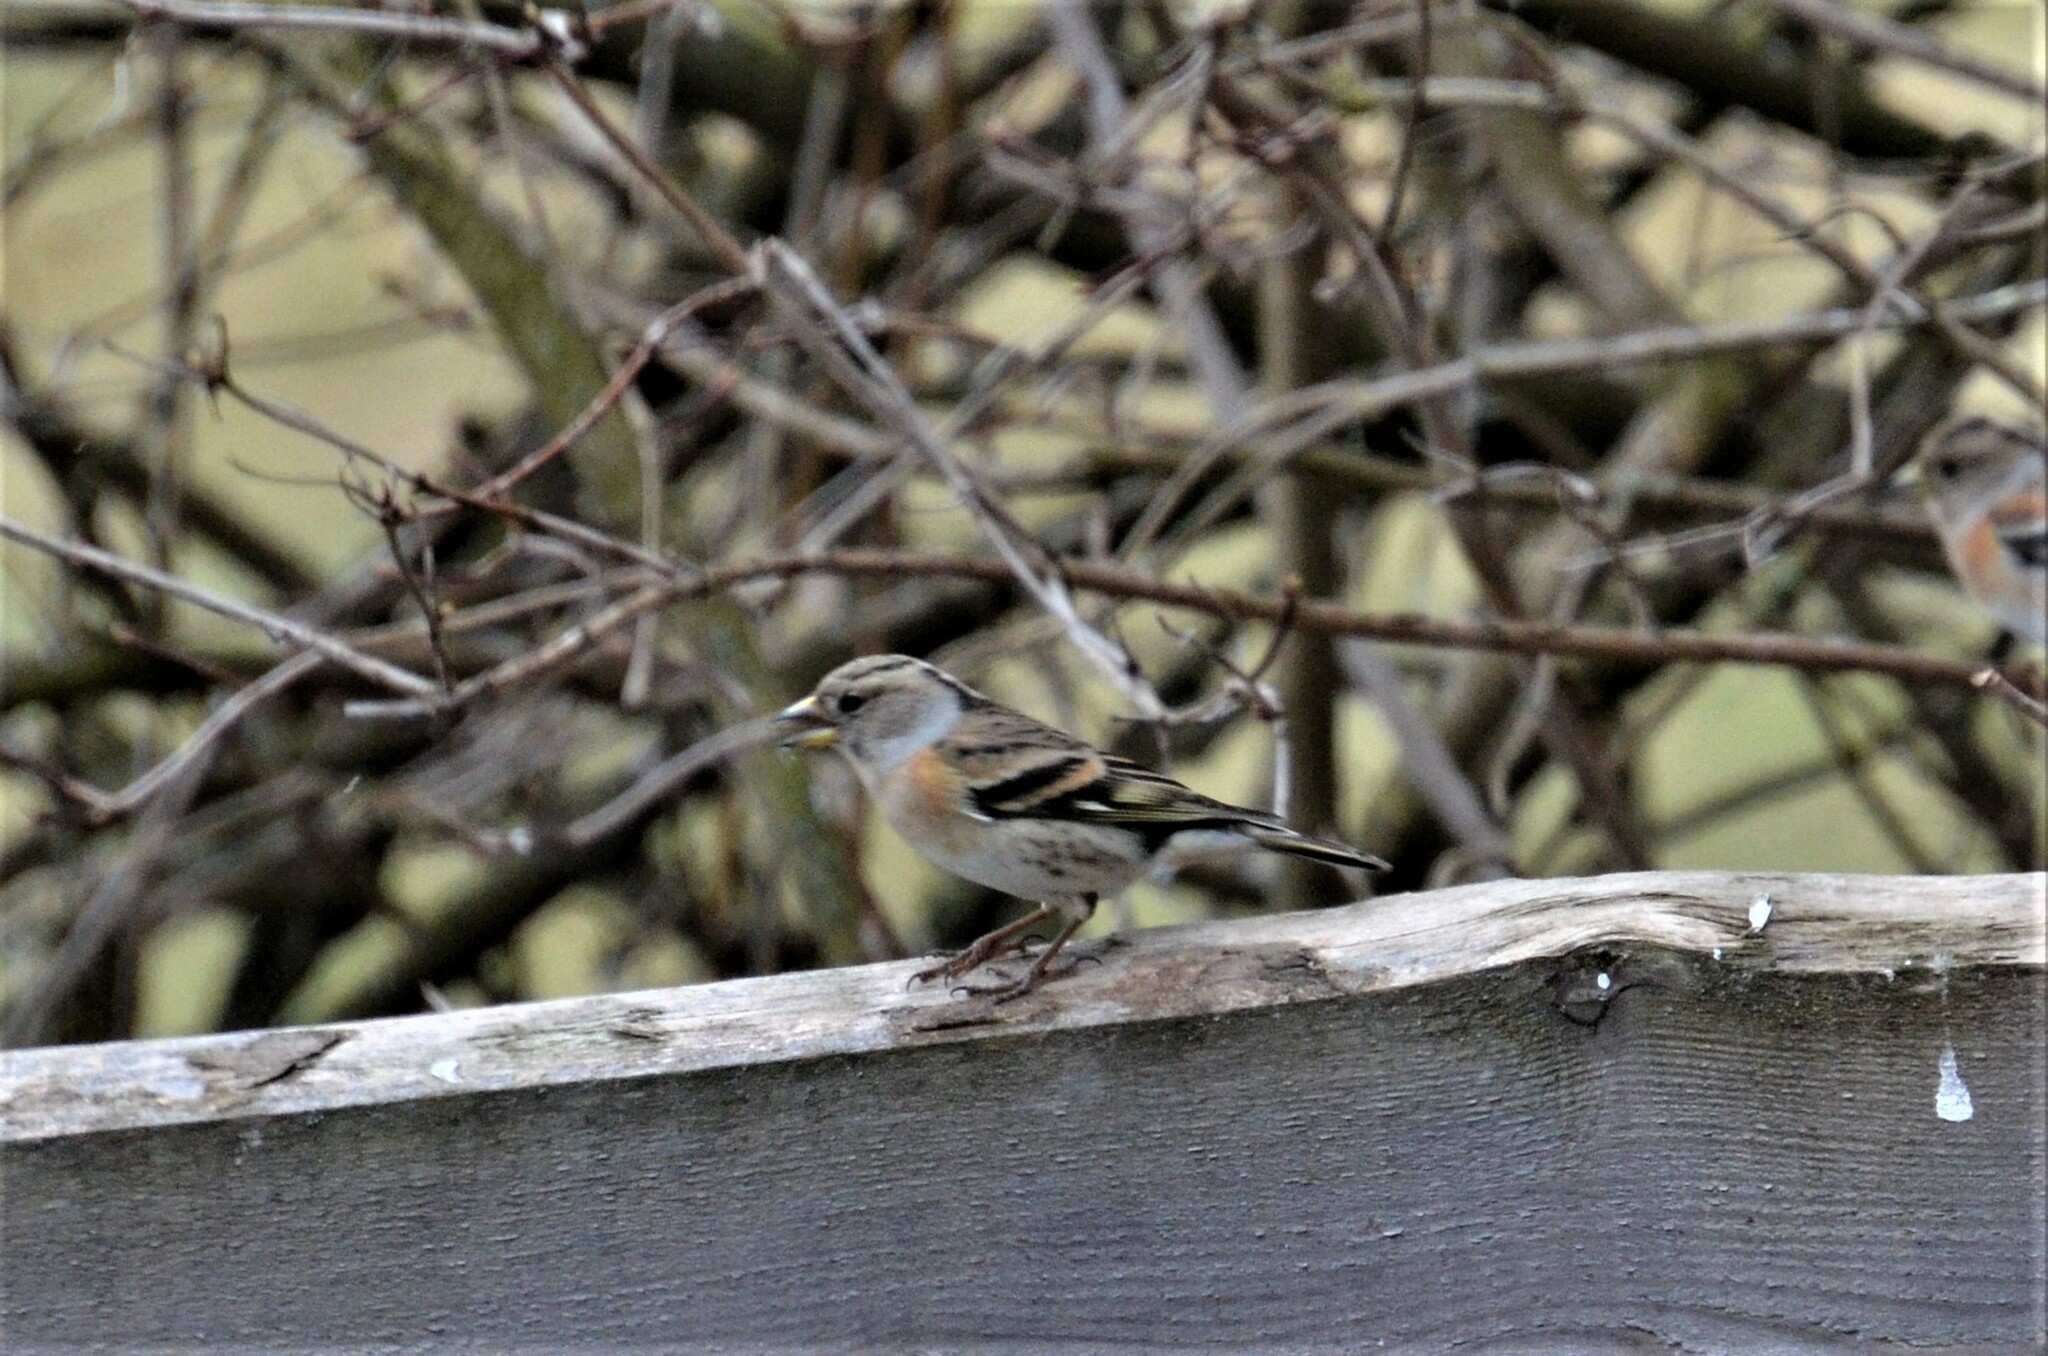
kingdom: Animalia
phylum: Chordata
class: Aves
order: Passeriformes
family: Fringillidae
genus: Fringilla
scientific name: Fringilla montifringilla
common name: Brambling
